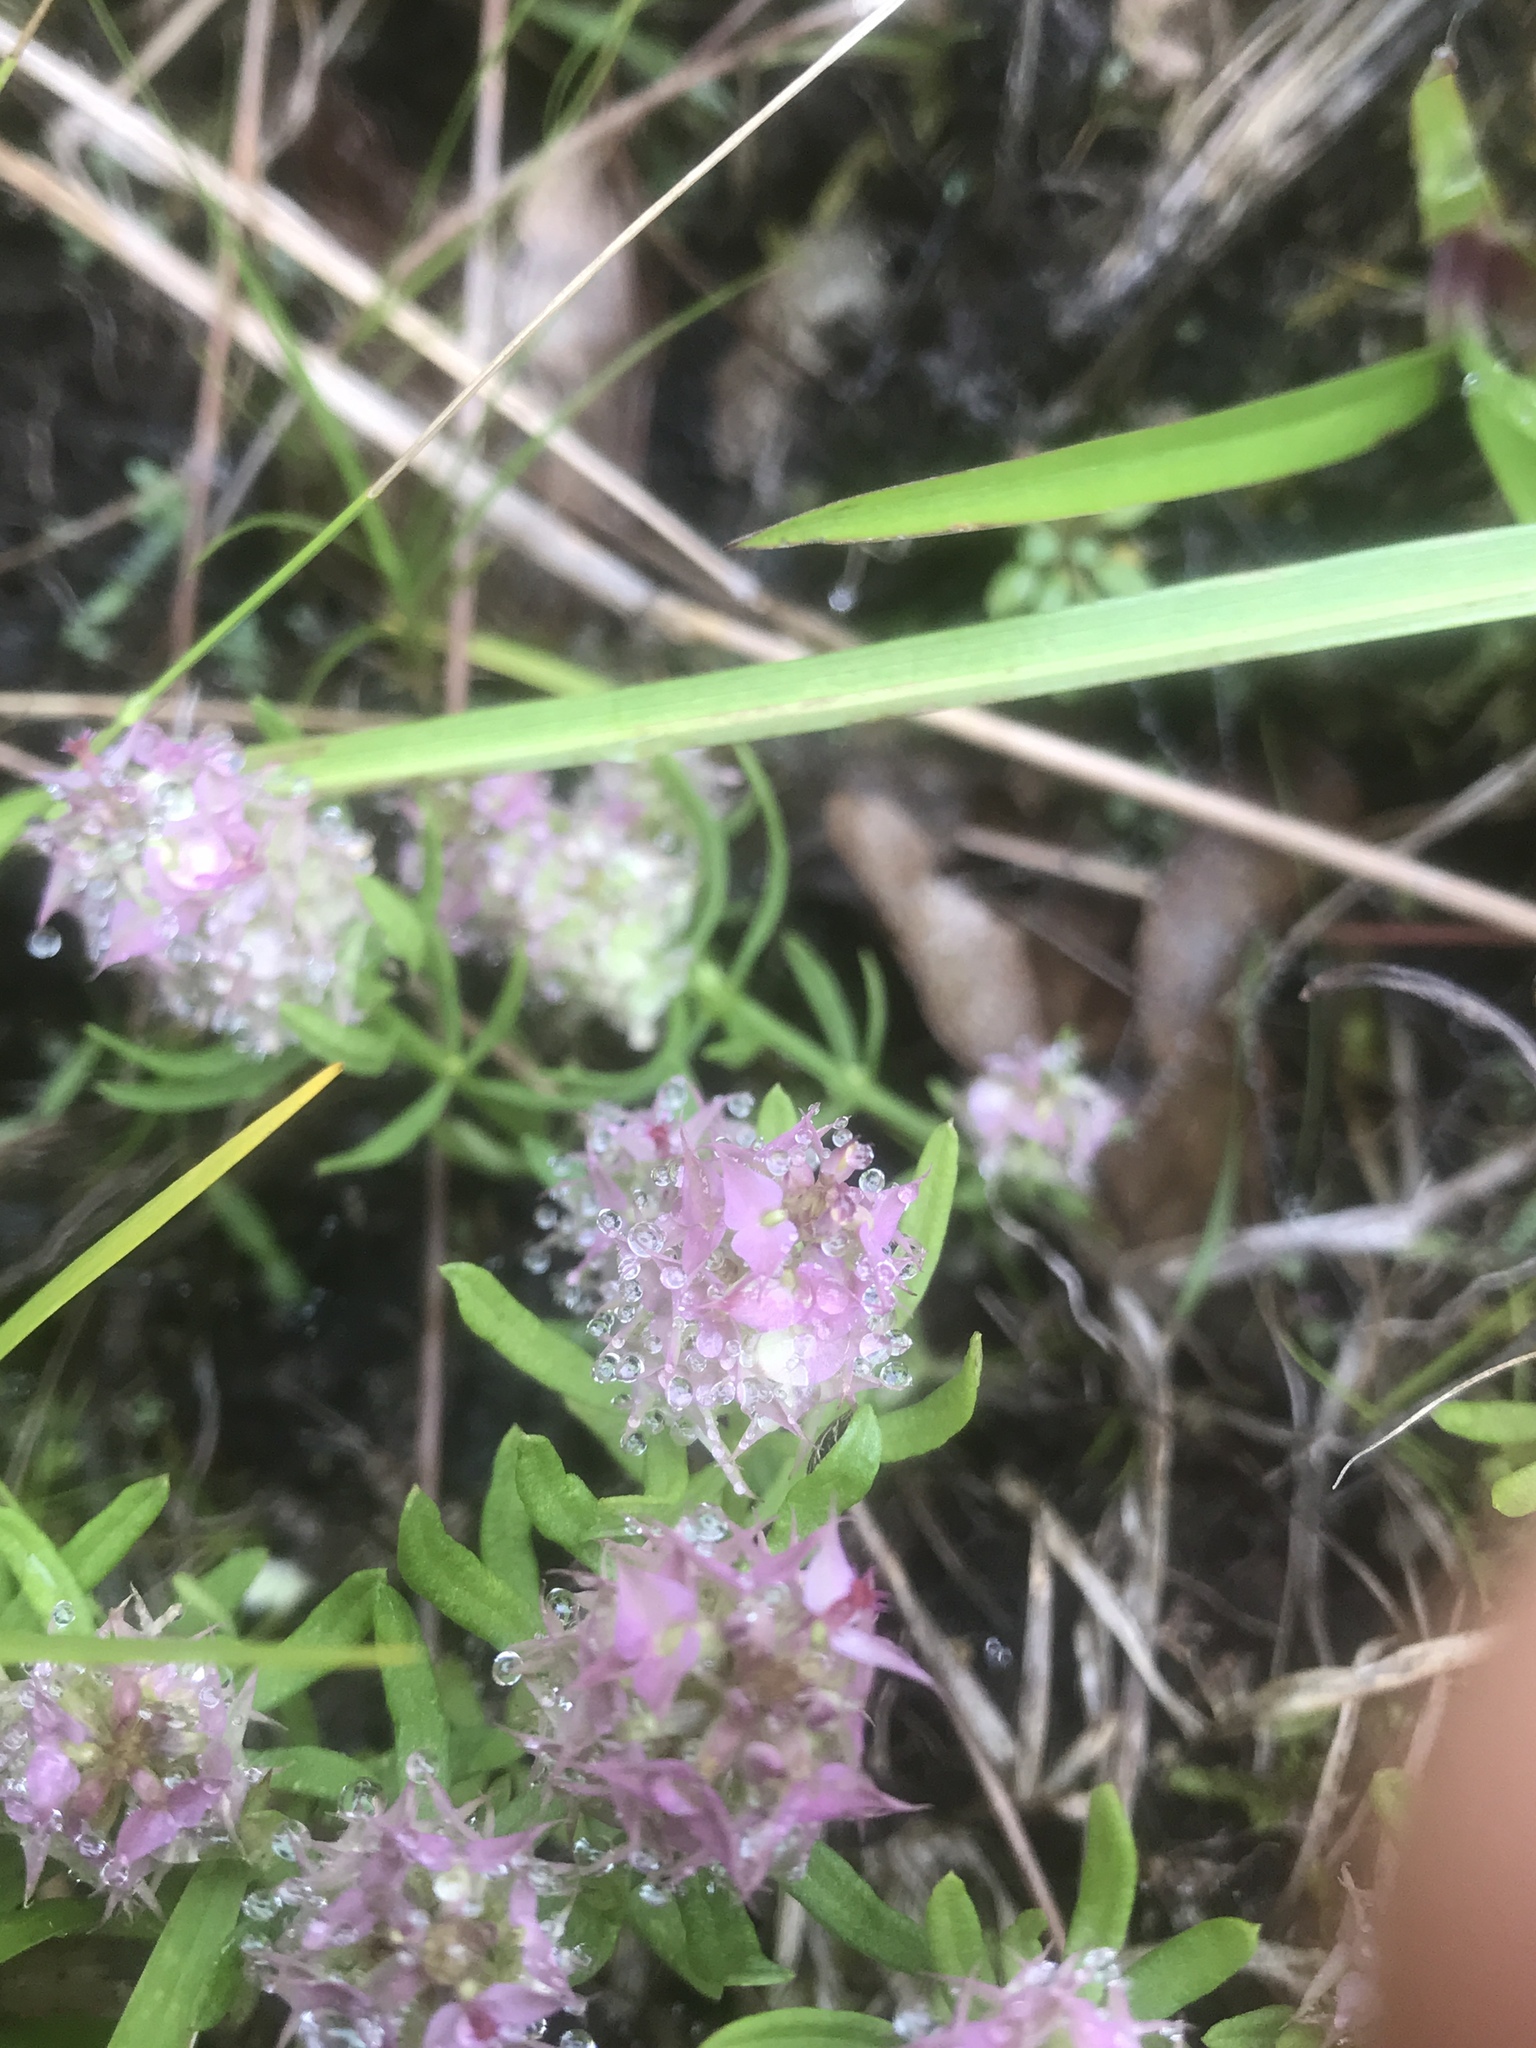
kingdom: Plantae
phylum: Tracheophyta
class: Magnoliopsida
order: Fabales
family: Polygalaceae
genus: Polygala
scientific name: Polygala cruciata
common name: Drumheads
